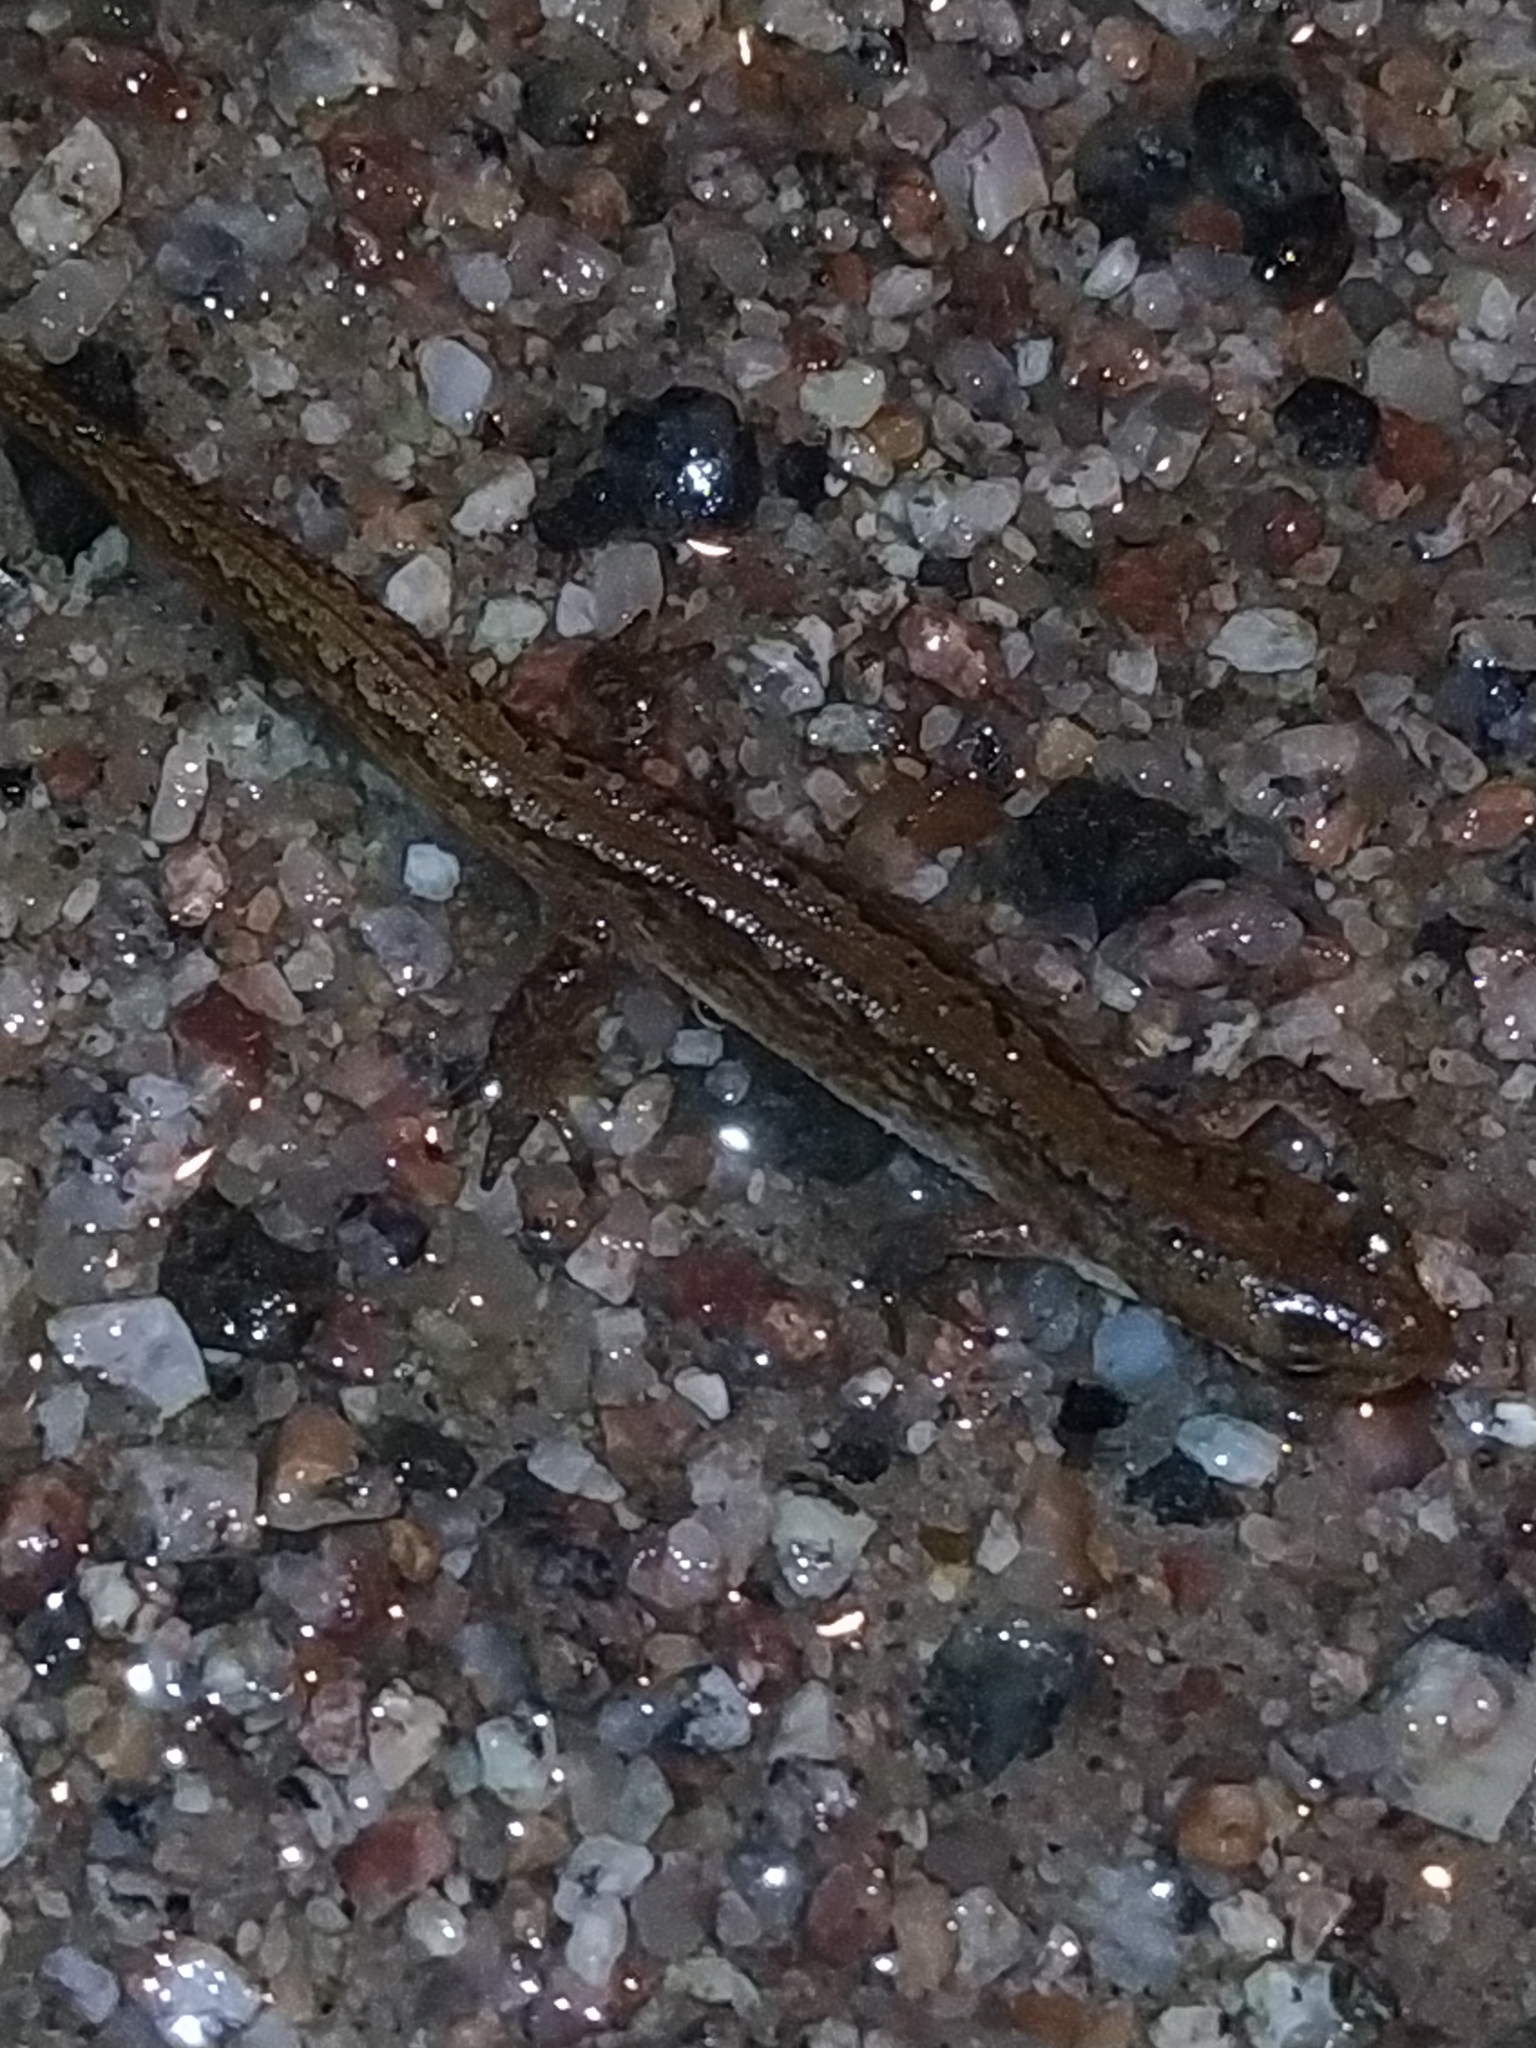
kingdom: Animalia
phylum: Chordata
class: Amphibia
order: Caudata
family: Salamandridae
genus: Lissotriton
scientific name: Lissotriton vulgaris
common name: Smooth newt
